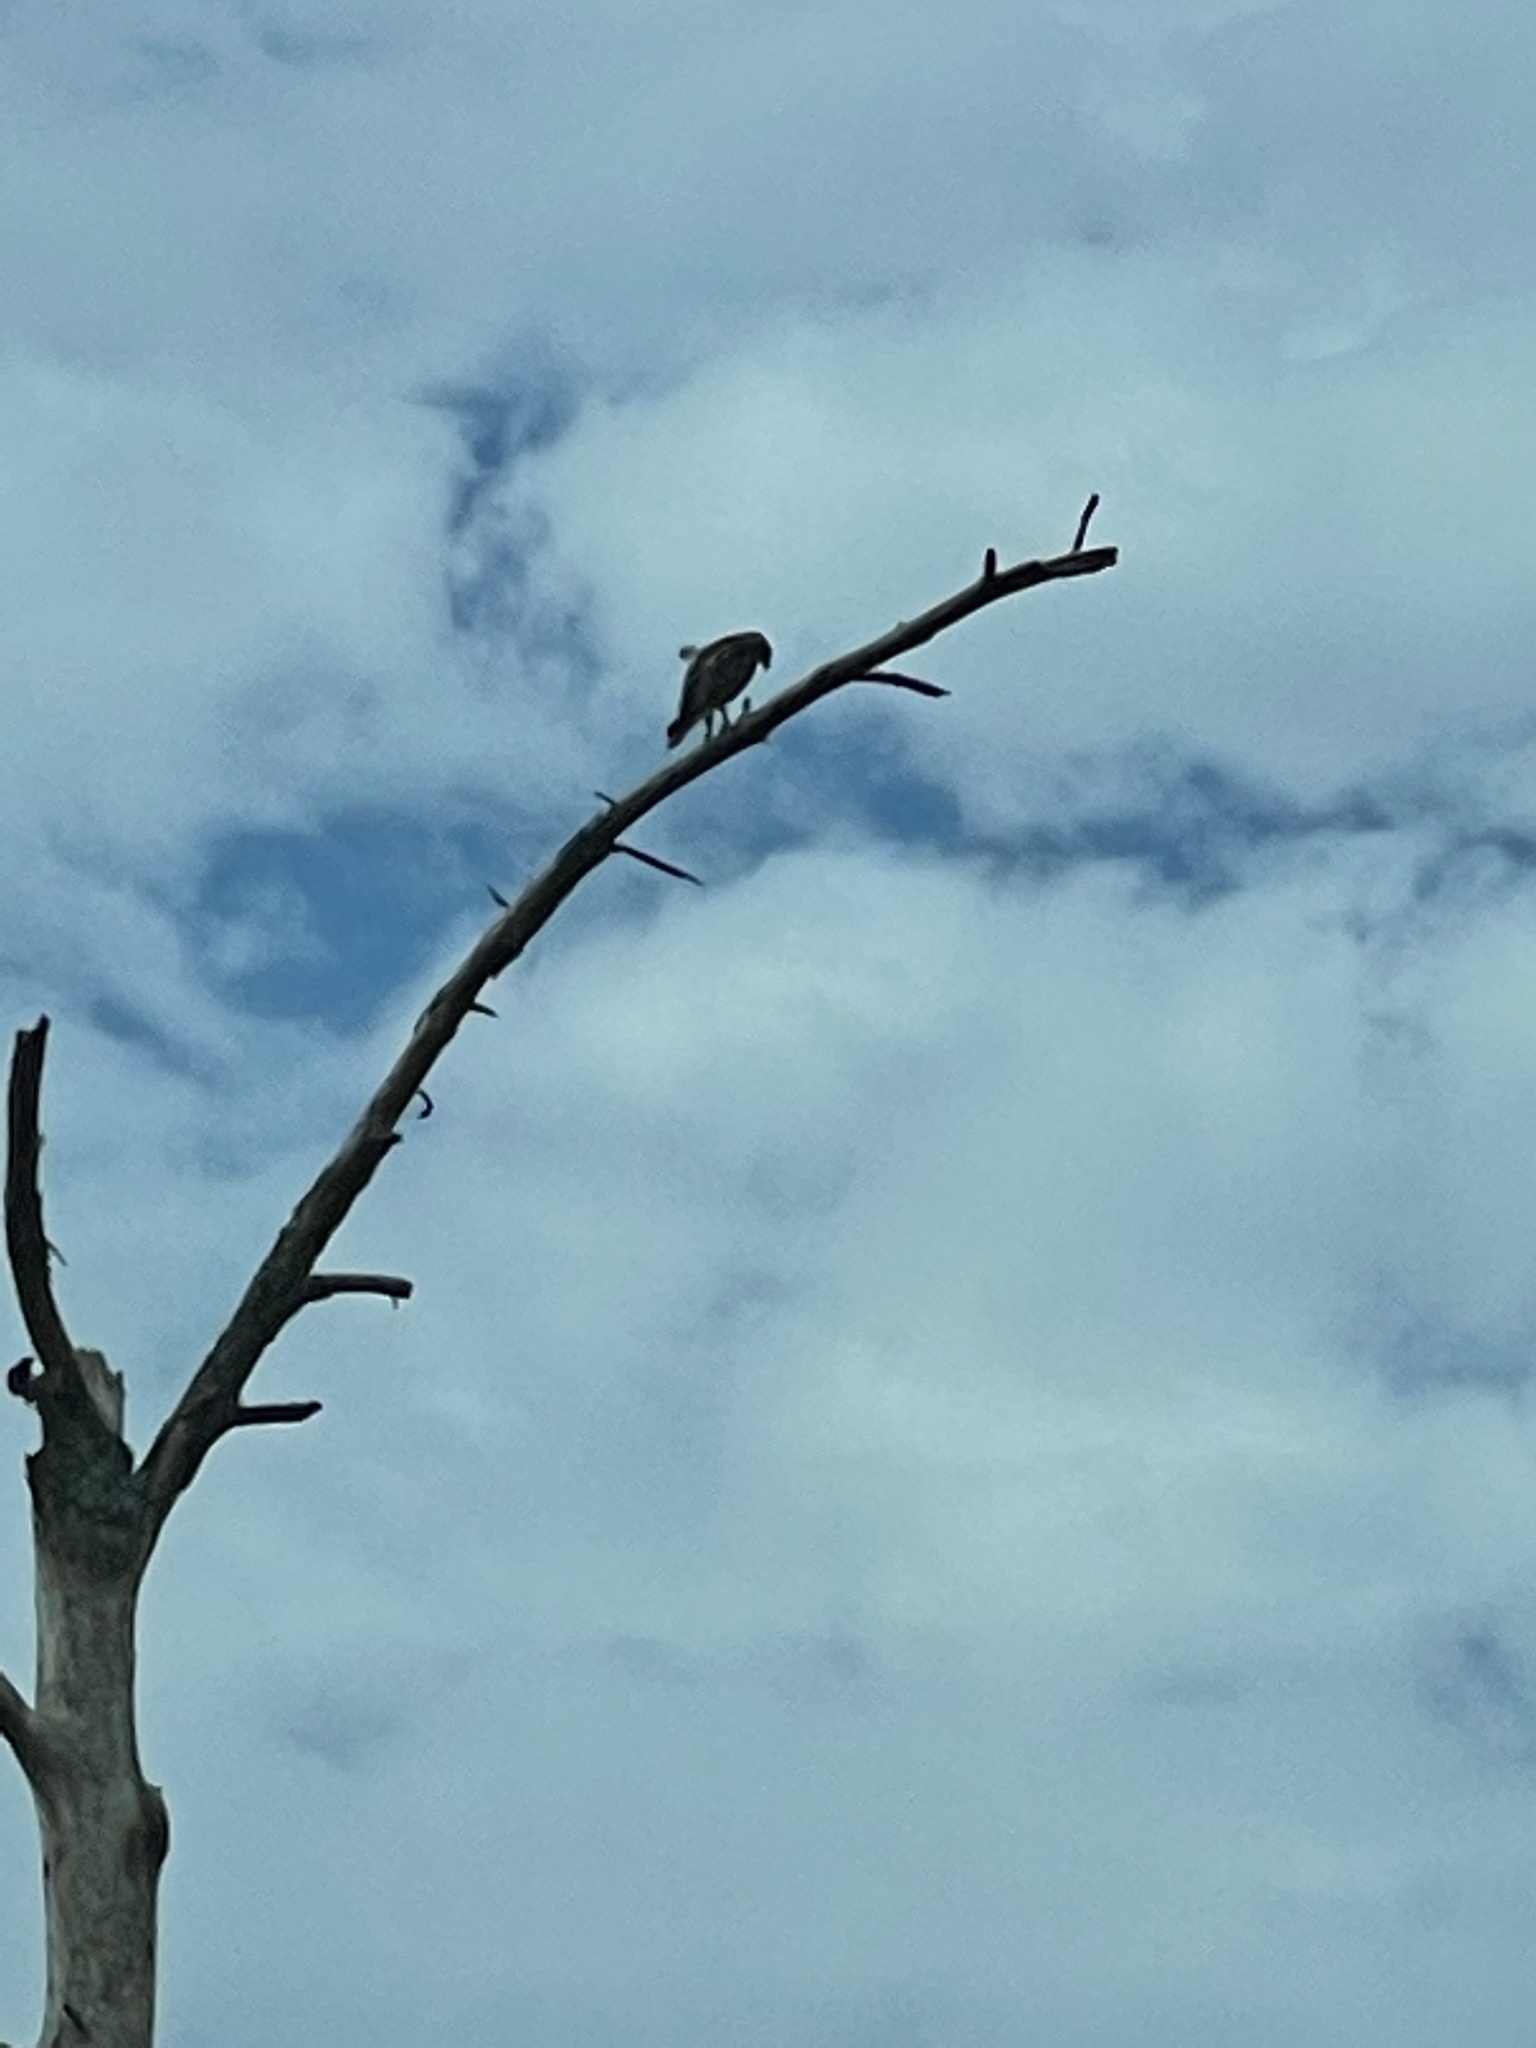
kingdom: Animalia
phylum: Chordata
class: Aves
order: Accipitriformes
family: Accipitridae
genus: Buteo
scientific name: Buteo jamaicensis
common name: Red-tailed hawk
